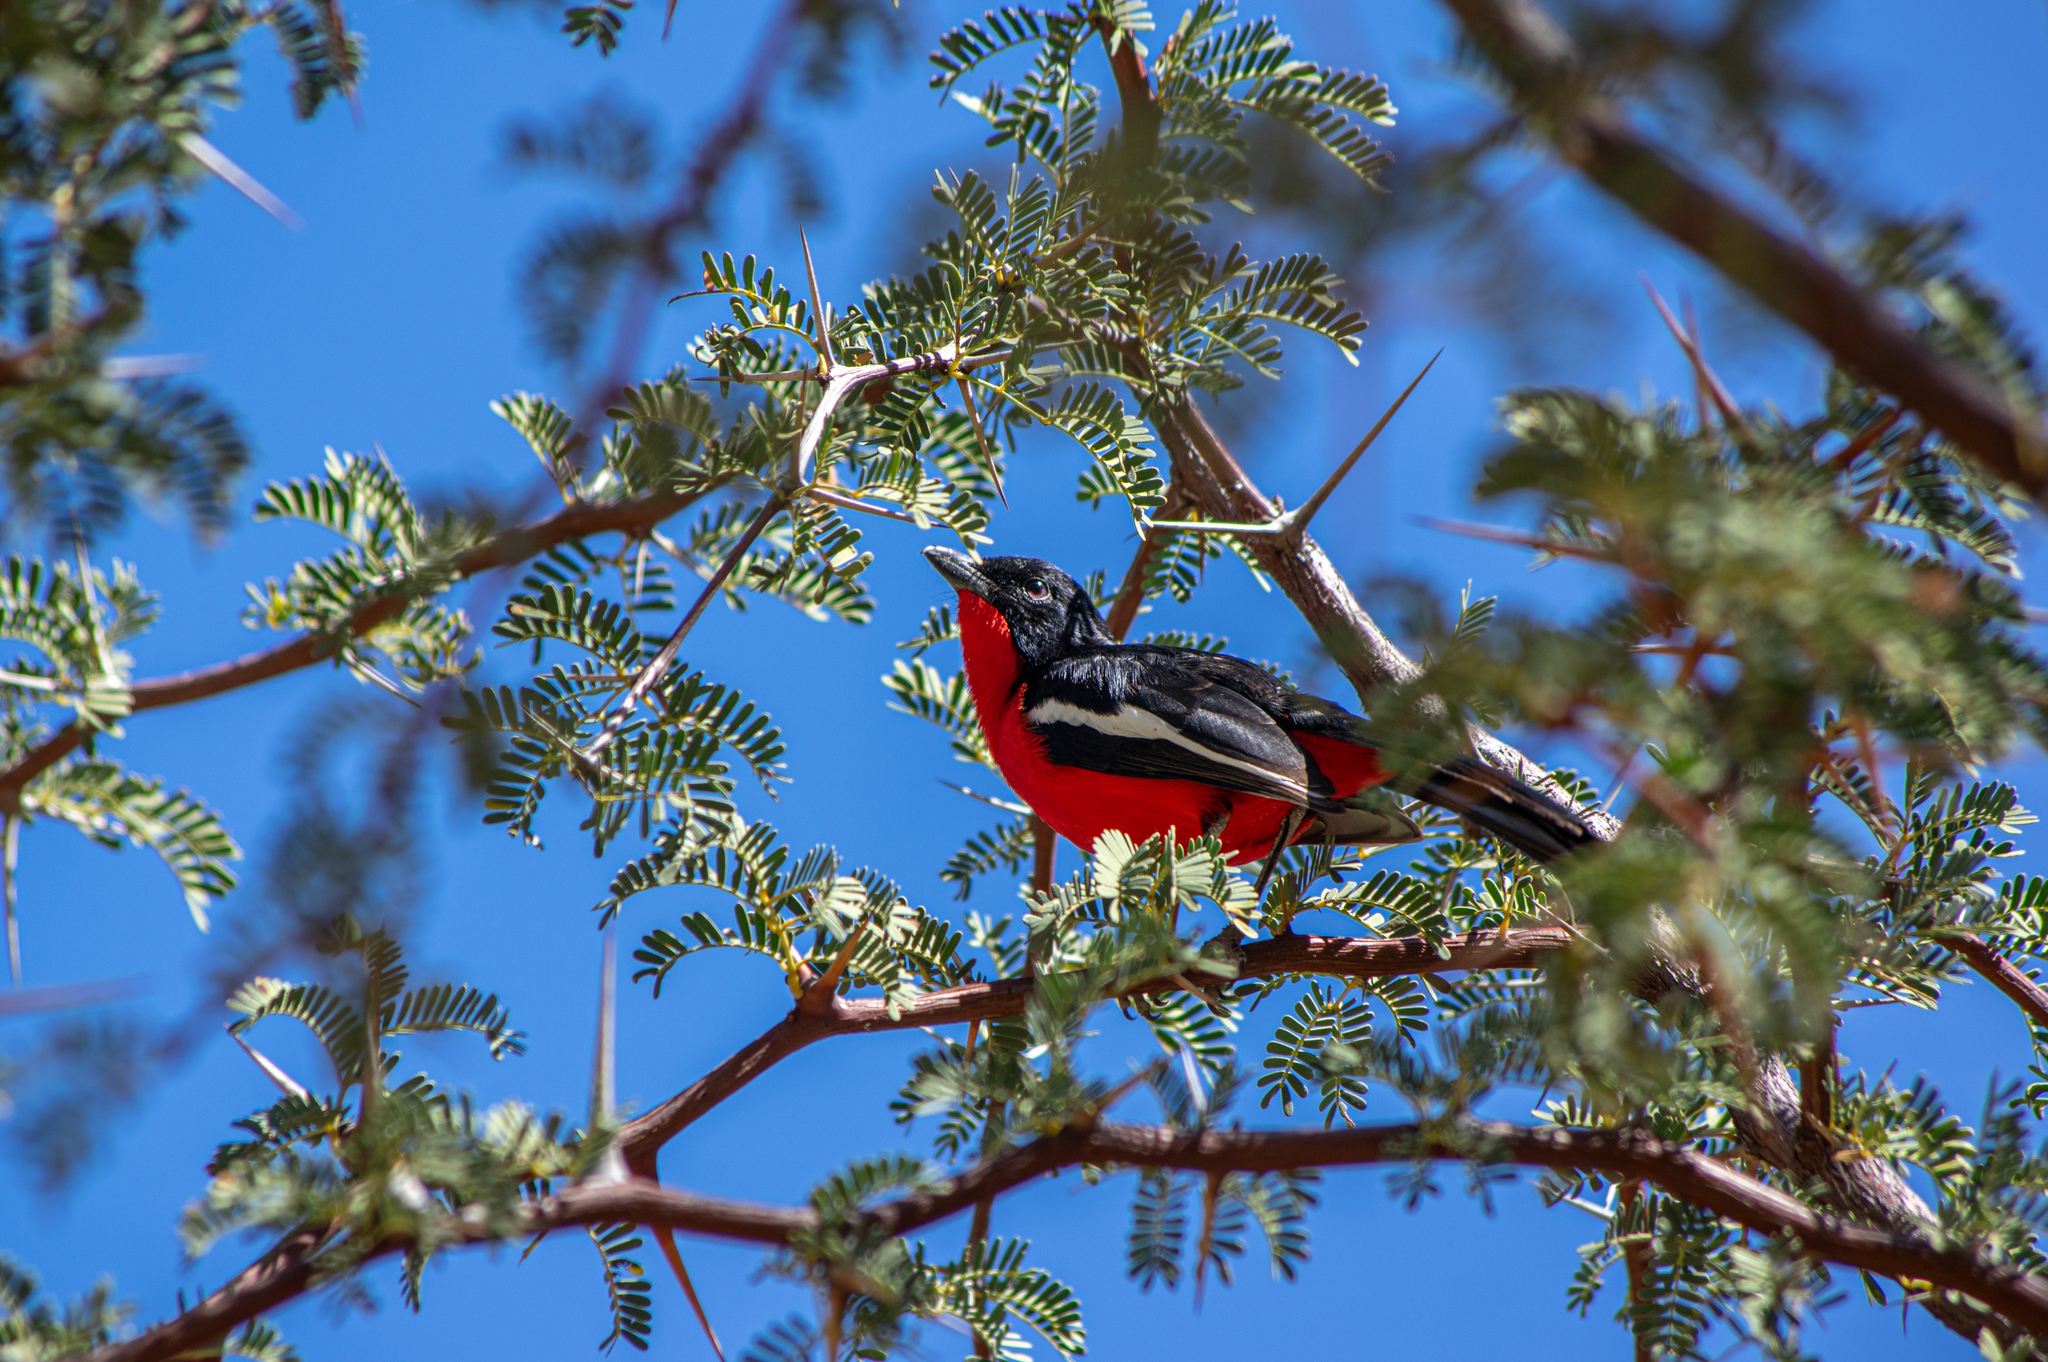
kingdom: Animalia
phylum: Chordata
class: Aves
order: Passeriformes
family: Malaconotidae
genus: Laniarius
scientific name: Laniarius atrococcineus
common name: Crimson-breasted shrike
